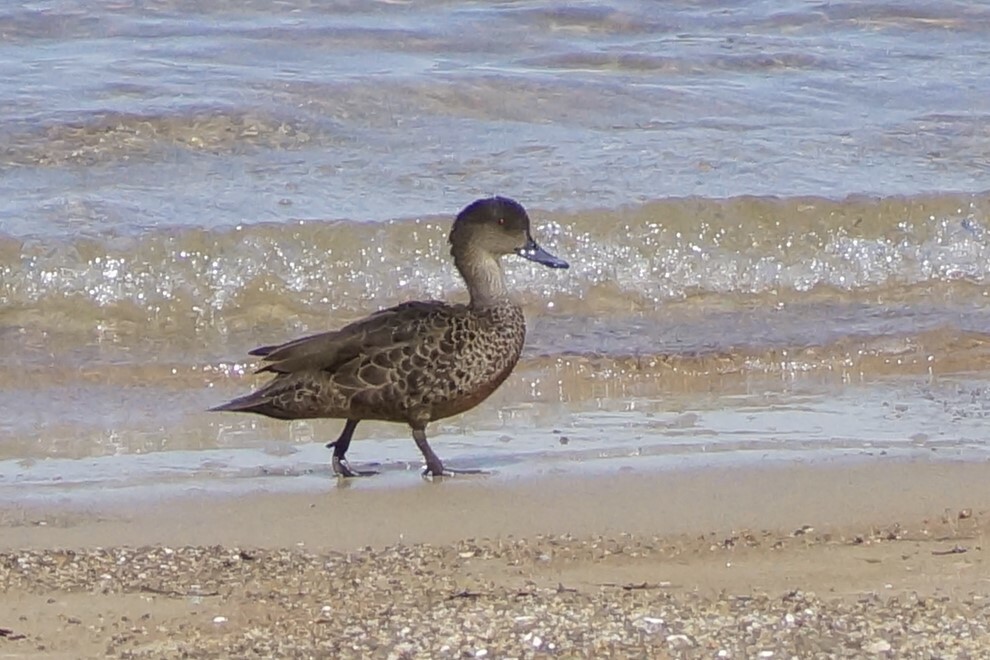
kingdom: Animalia
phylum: Chordata
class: Aves
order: Anseriformes
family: Anatidae
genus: Anas
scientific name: Anas castanea
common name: Chestnut teal
